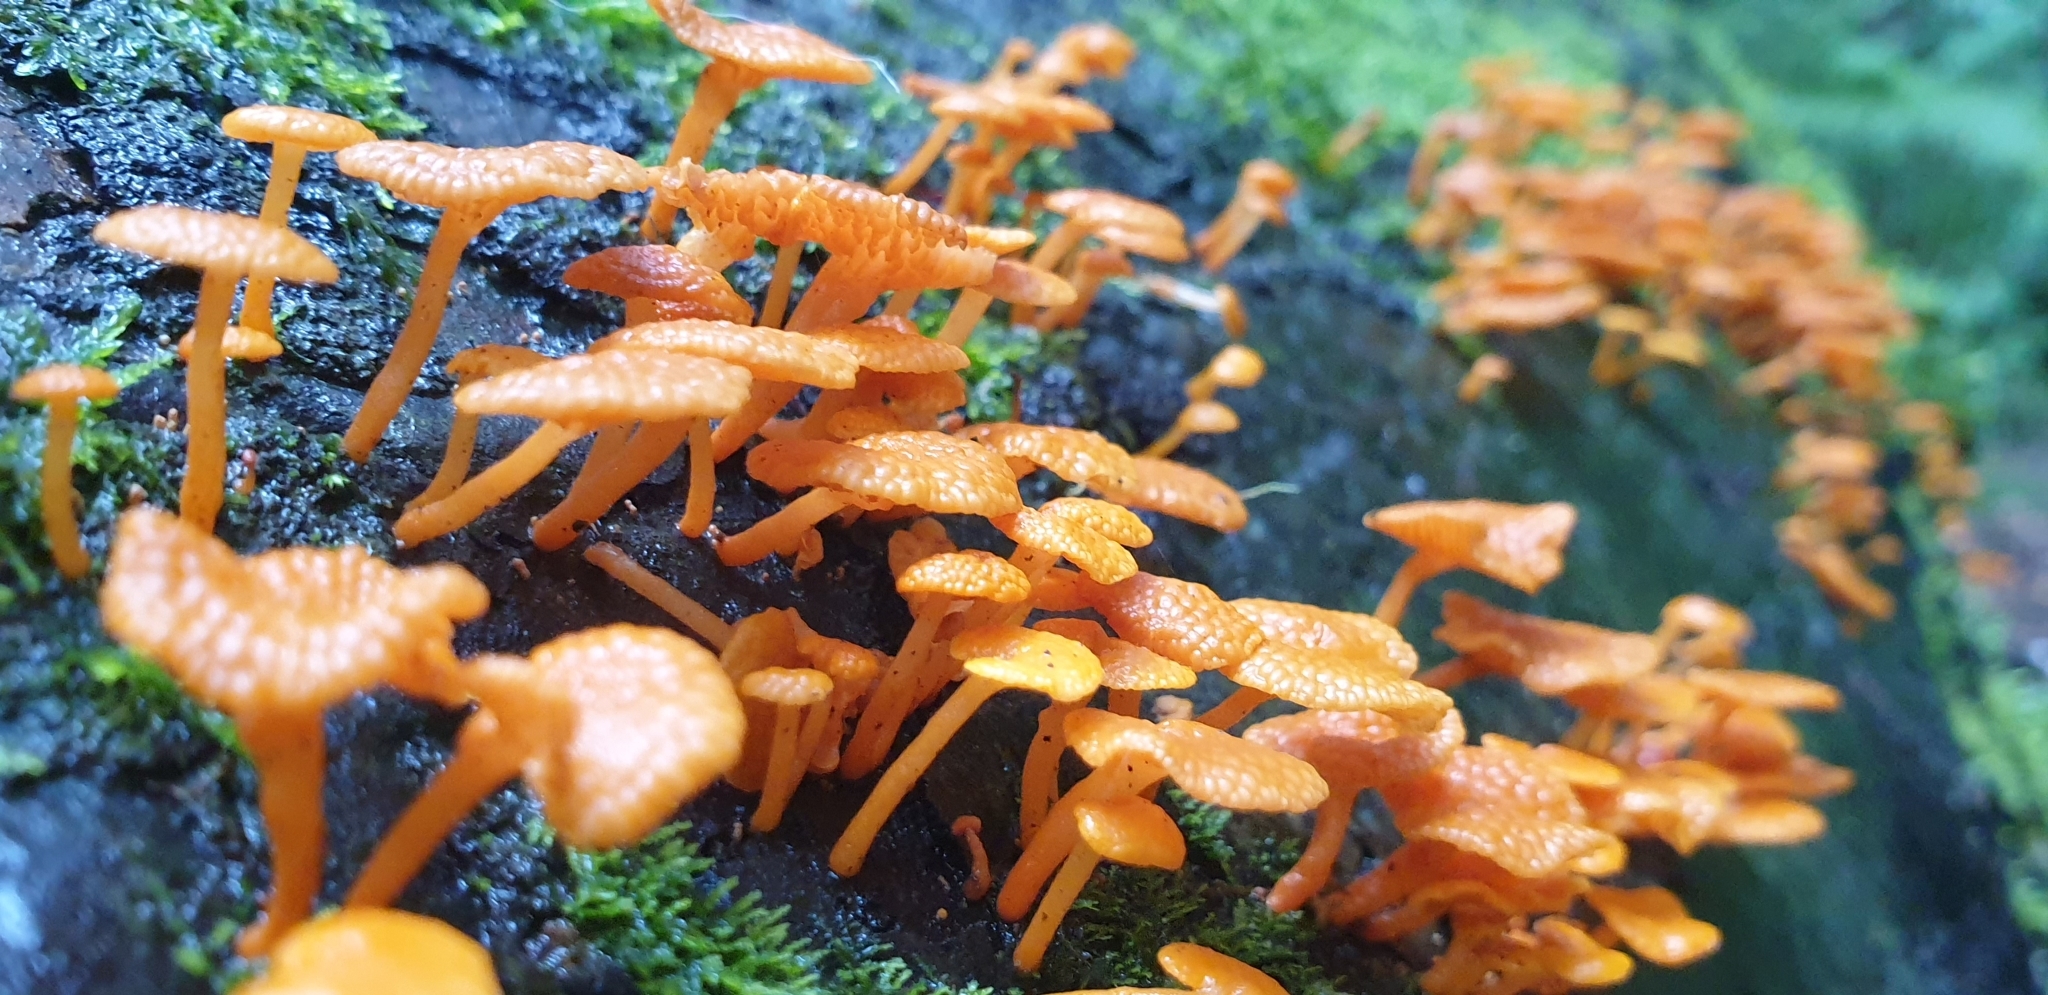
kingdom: Fungi
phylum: Basidiomycota
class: Agaricomycetes
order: Agaricales
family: Mycenaceae
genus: Favolaschia
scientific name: Favolaschia claudopus
